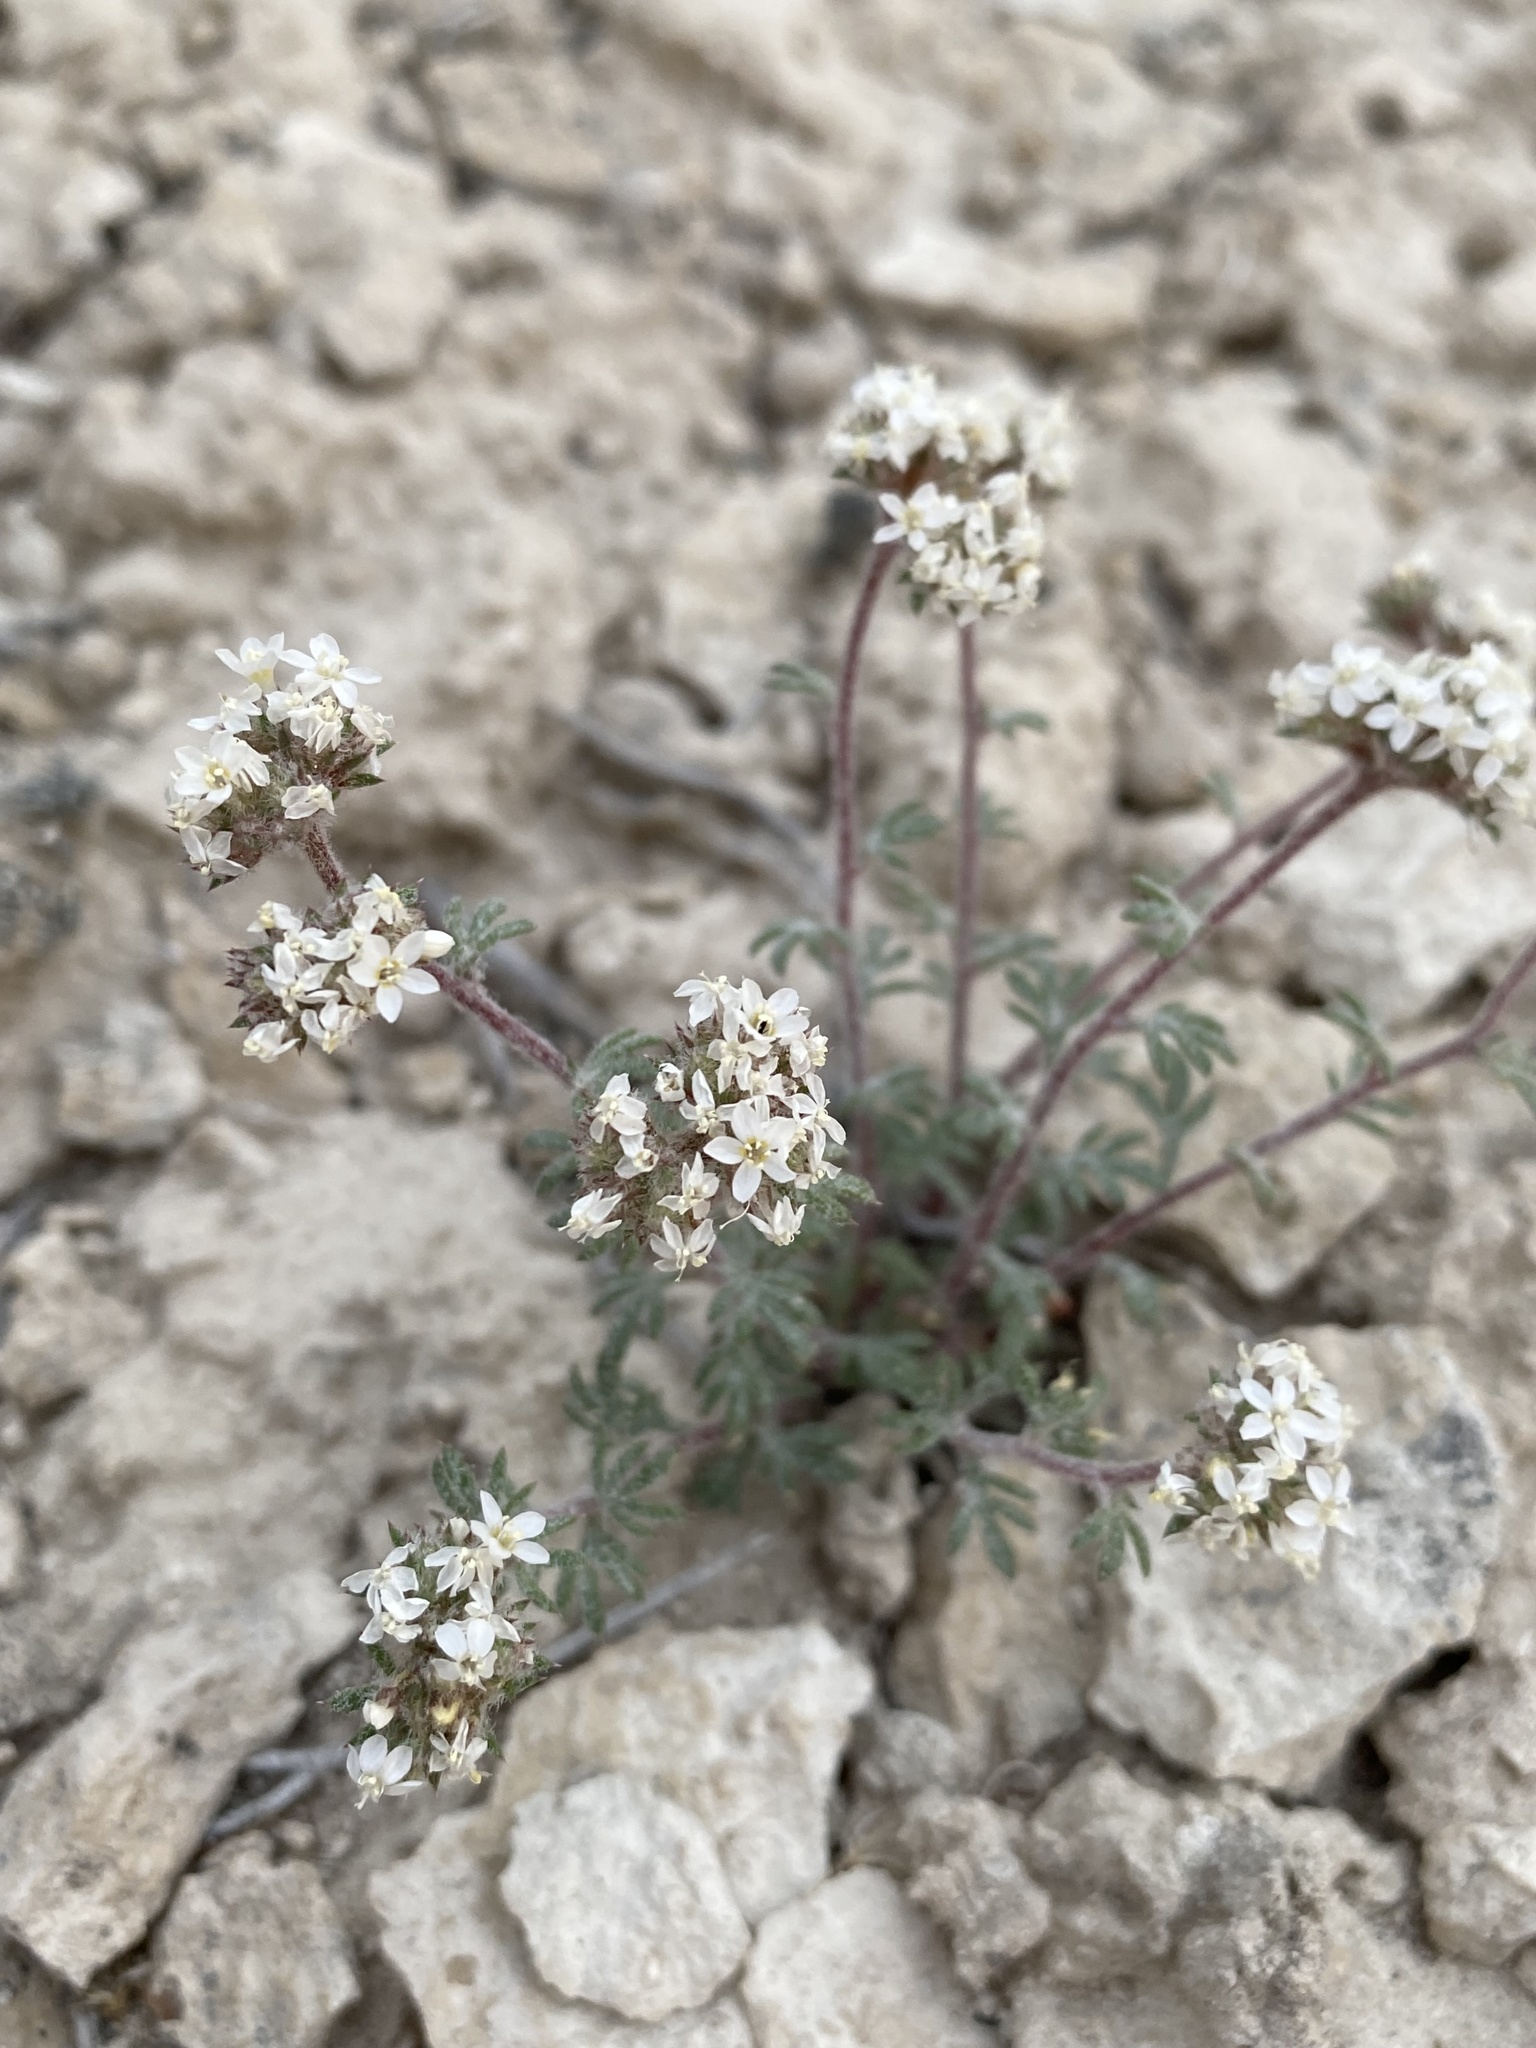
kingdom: Plantae
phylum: Tracheophyta
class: Magnoliopsida
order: Ericales
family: Polemoniaceae
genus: Ipomopsis
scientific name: Ipomopsis congesta
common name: Ball-head gilia
